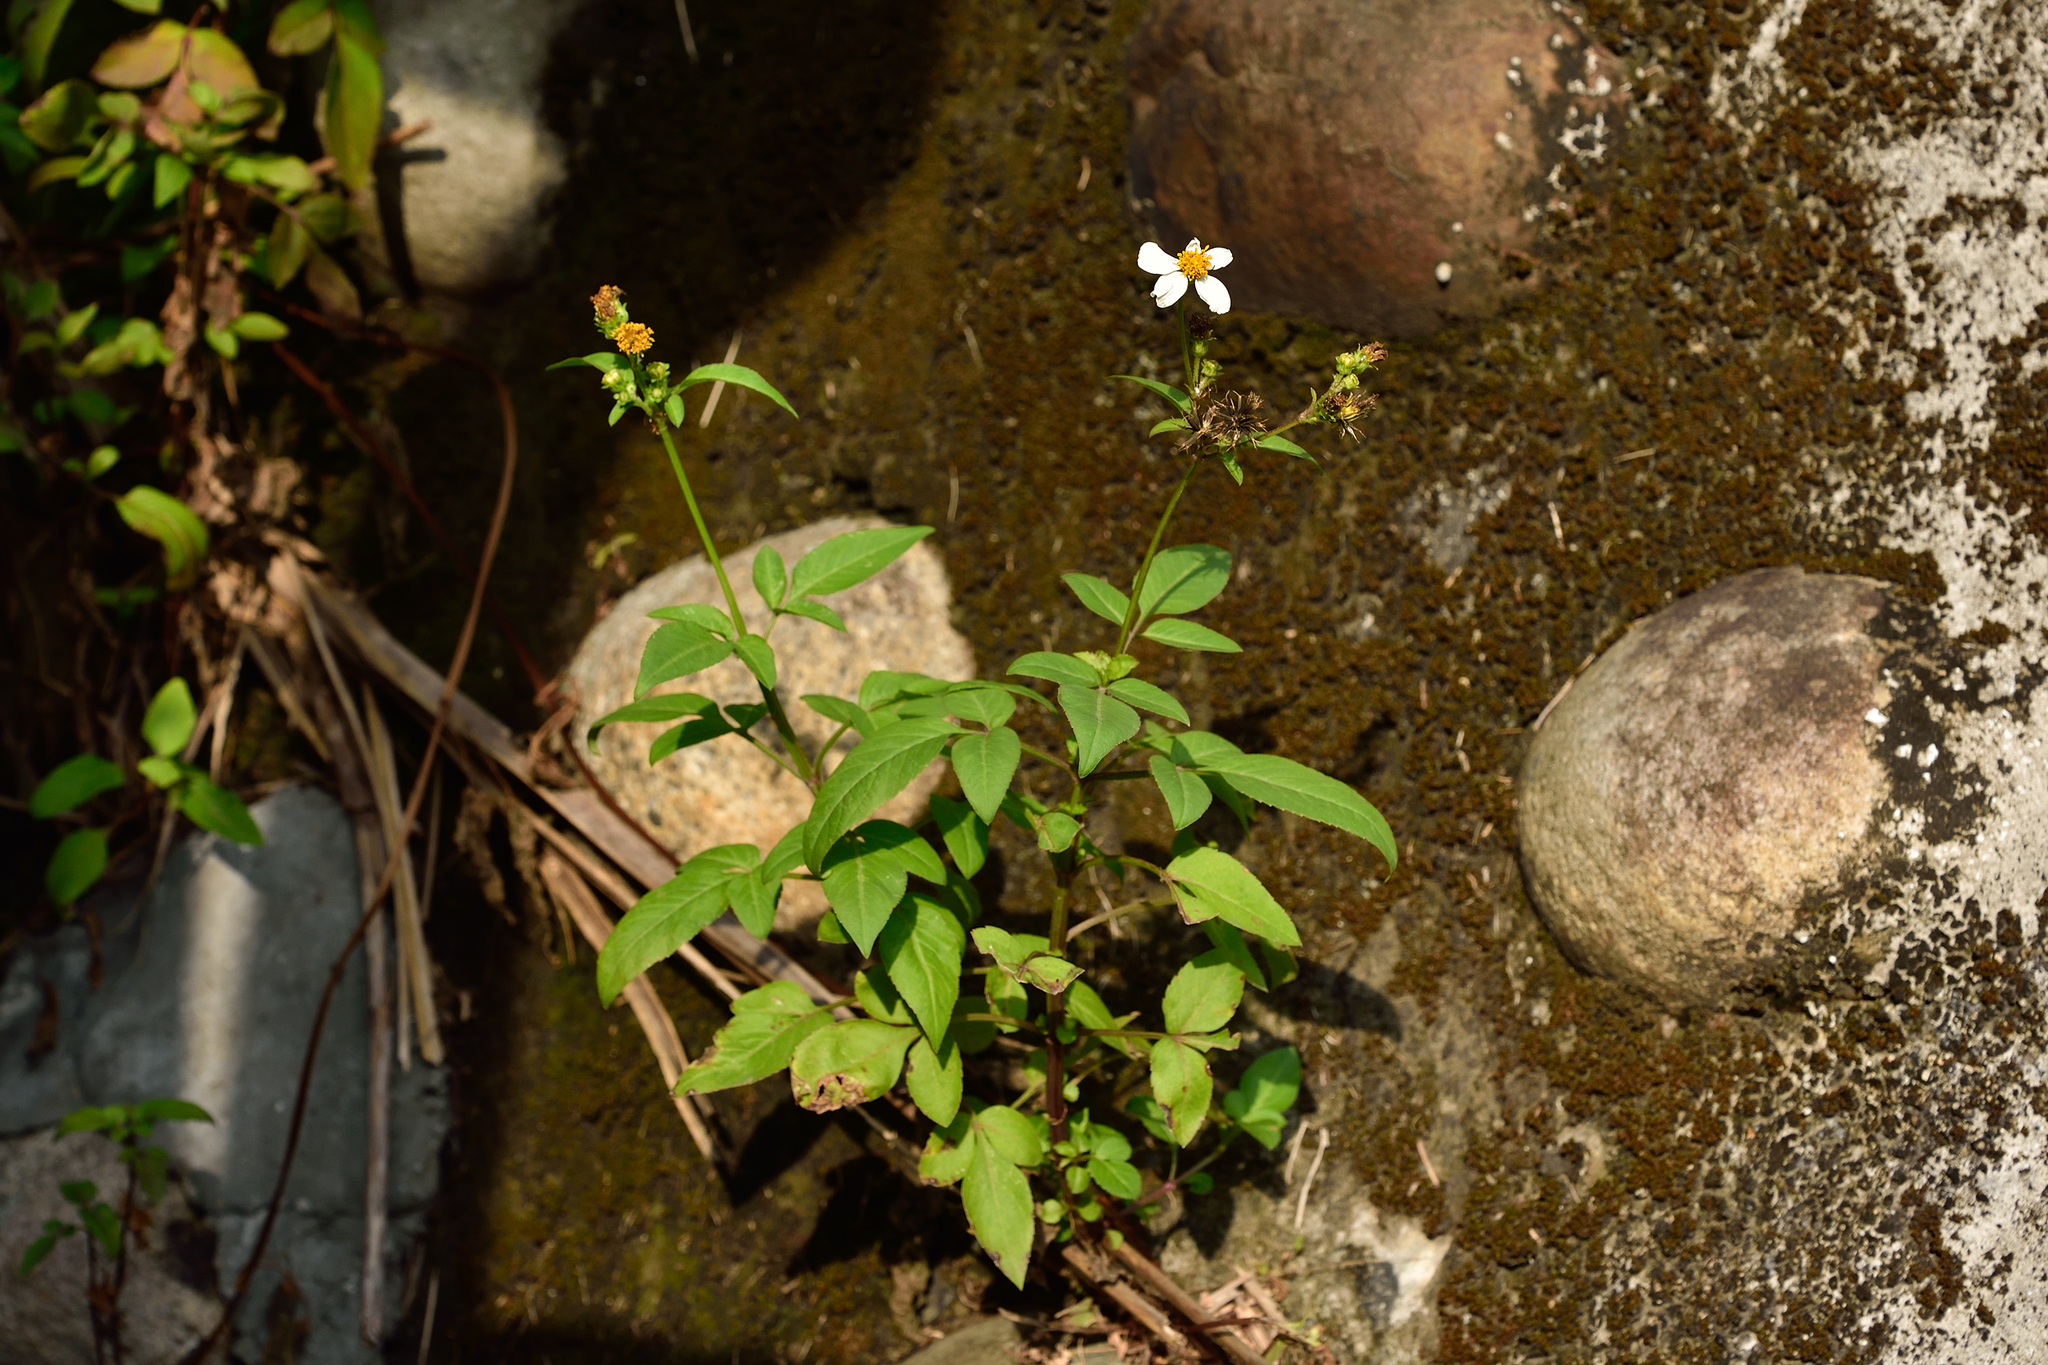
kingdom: Plantae
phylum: Tracheophyta
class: Magnoliopsida
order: Asterales
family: Asteraceae
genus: Bidens
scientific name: Bidens alba
